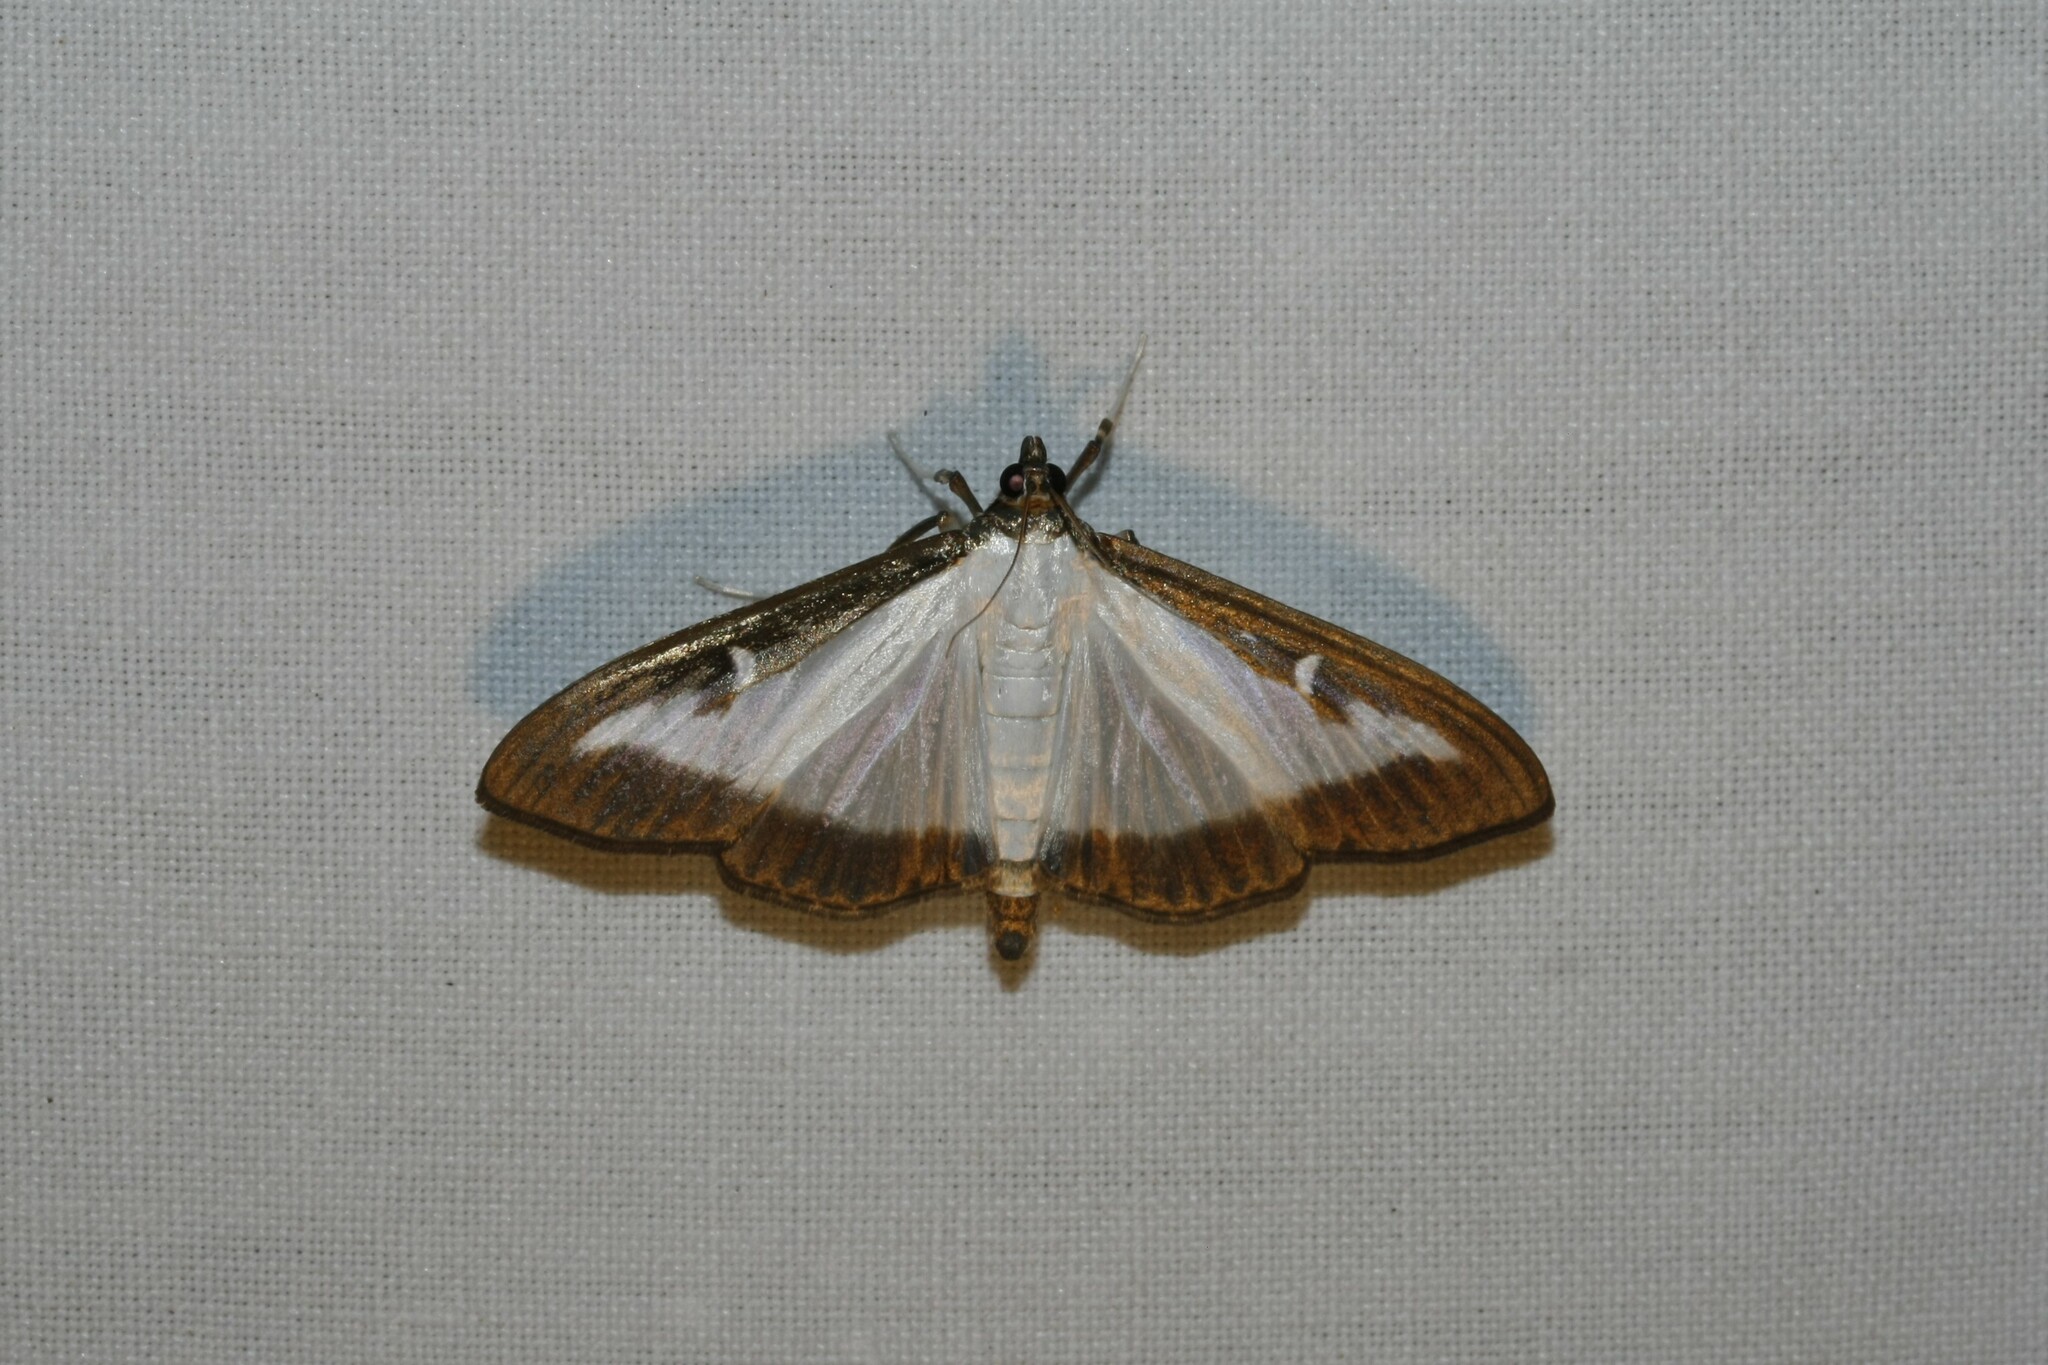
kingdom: Animalia
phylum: Arthropoda
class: Insecta
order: Lepidoptera
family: Crambidae
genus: Cydalima
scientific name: Cydalima perspectalis
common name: Box tree moth
